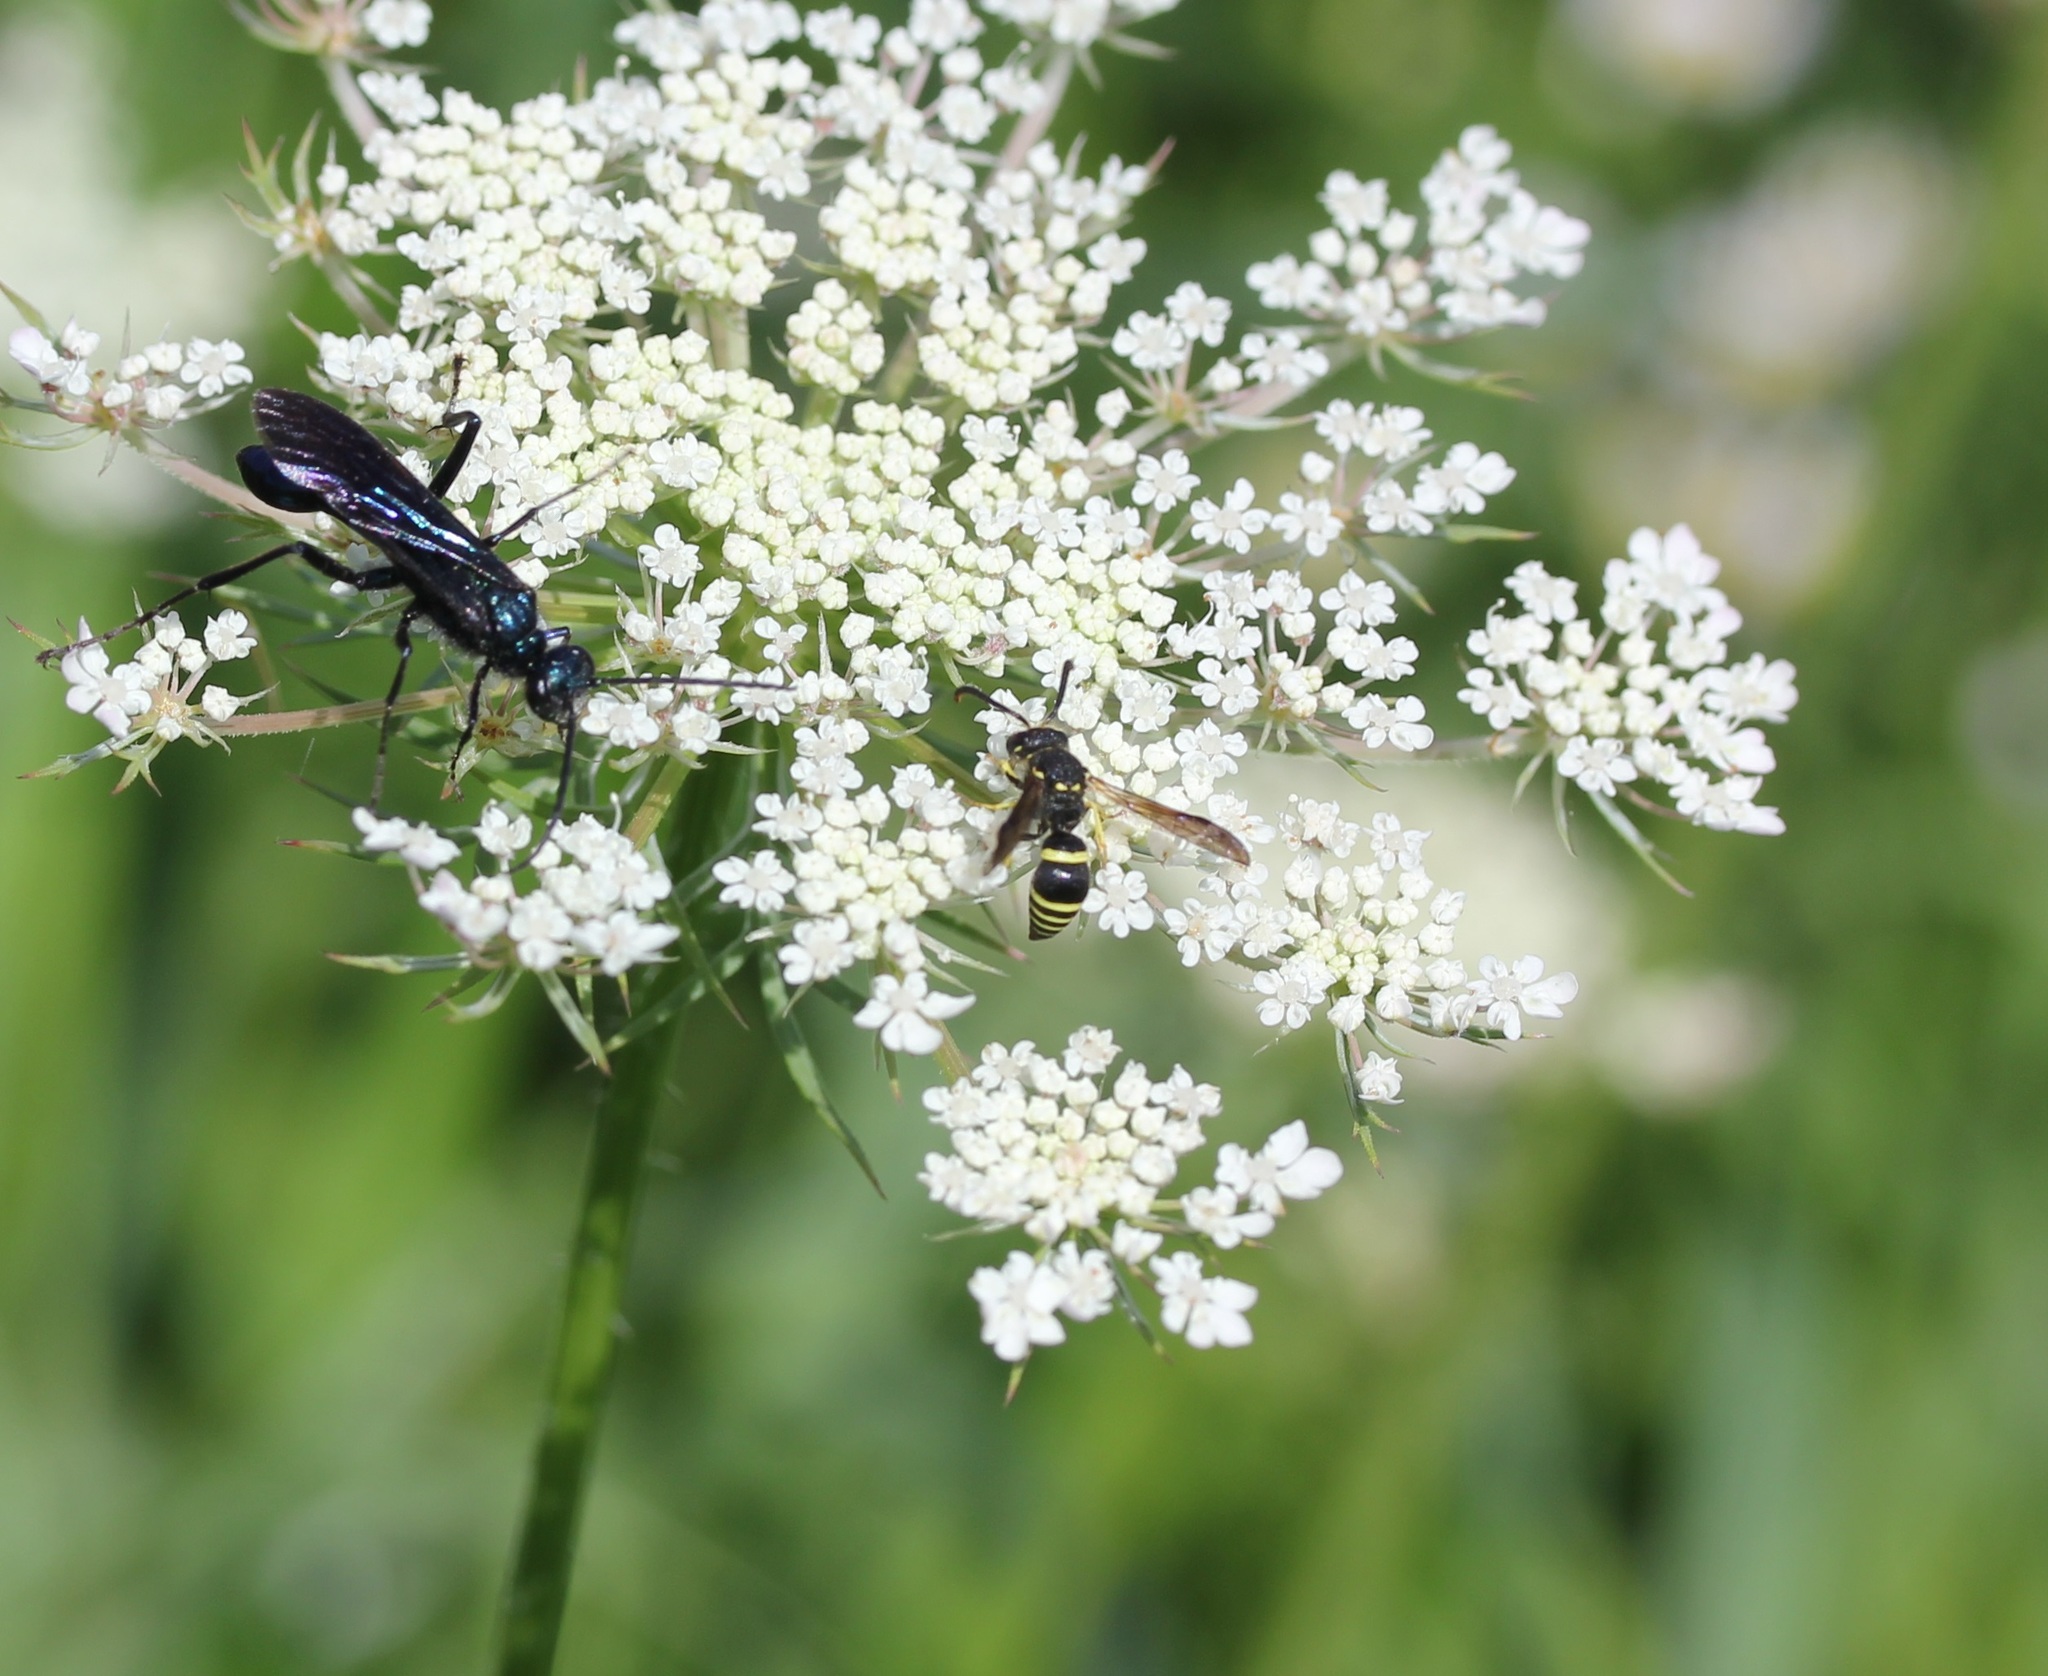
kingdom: Animalia
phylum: Arthropoda
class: Insecta
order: Hymenoptera
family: Vespidae
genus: Ancistrocerus
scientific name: Ancistrocerus
